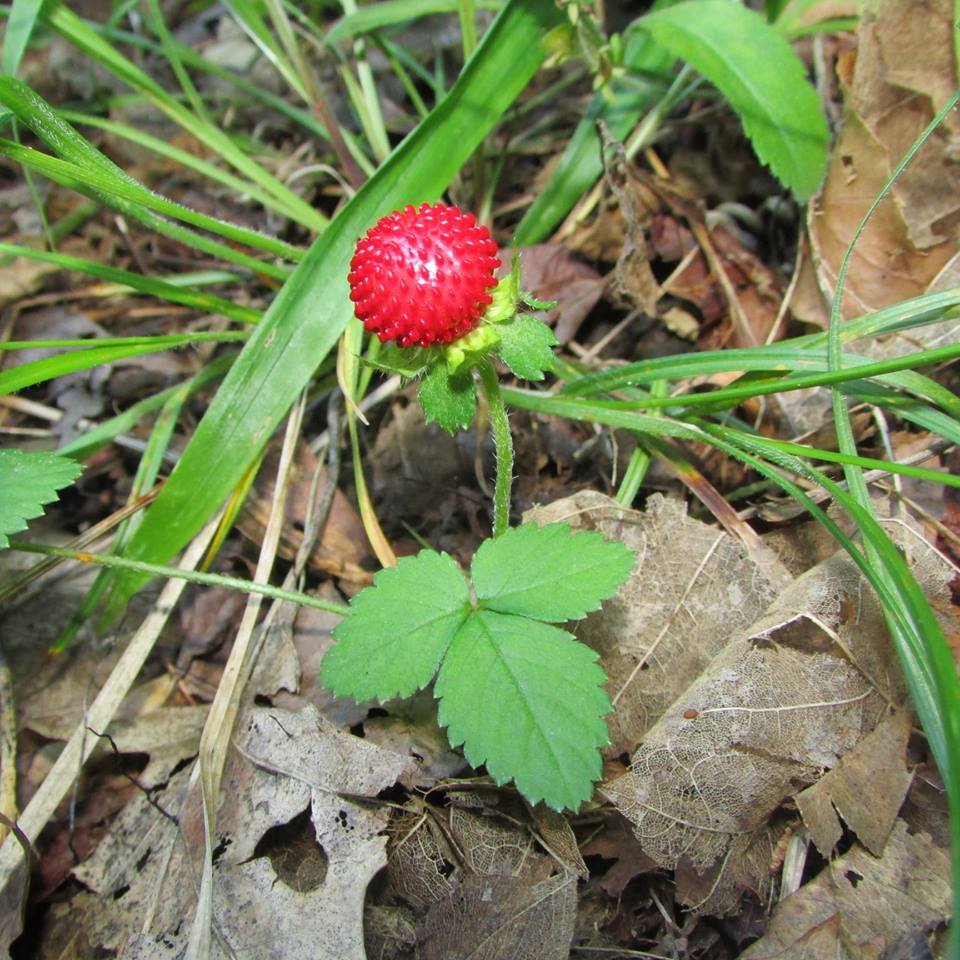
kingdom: Plantae
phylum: Tracheophyta
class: Magnoliopsida
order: Rosales
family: Rosaceae
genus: Potentilla
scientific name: Potentilla indica
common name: Yellow-flowered strawberry
